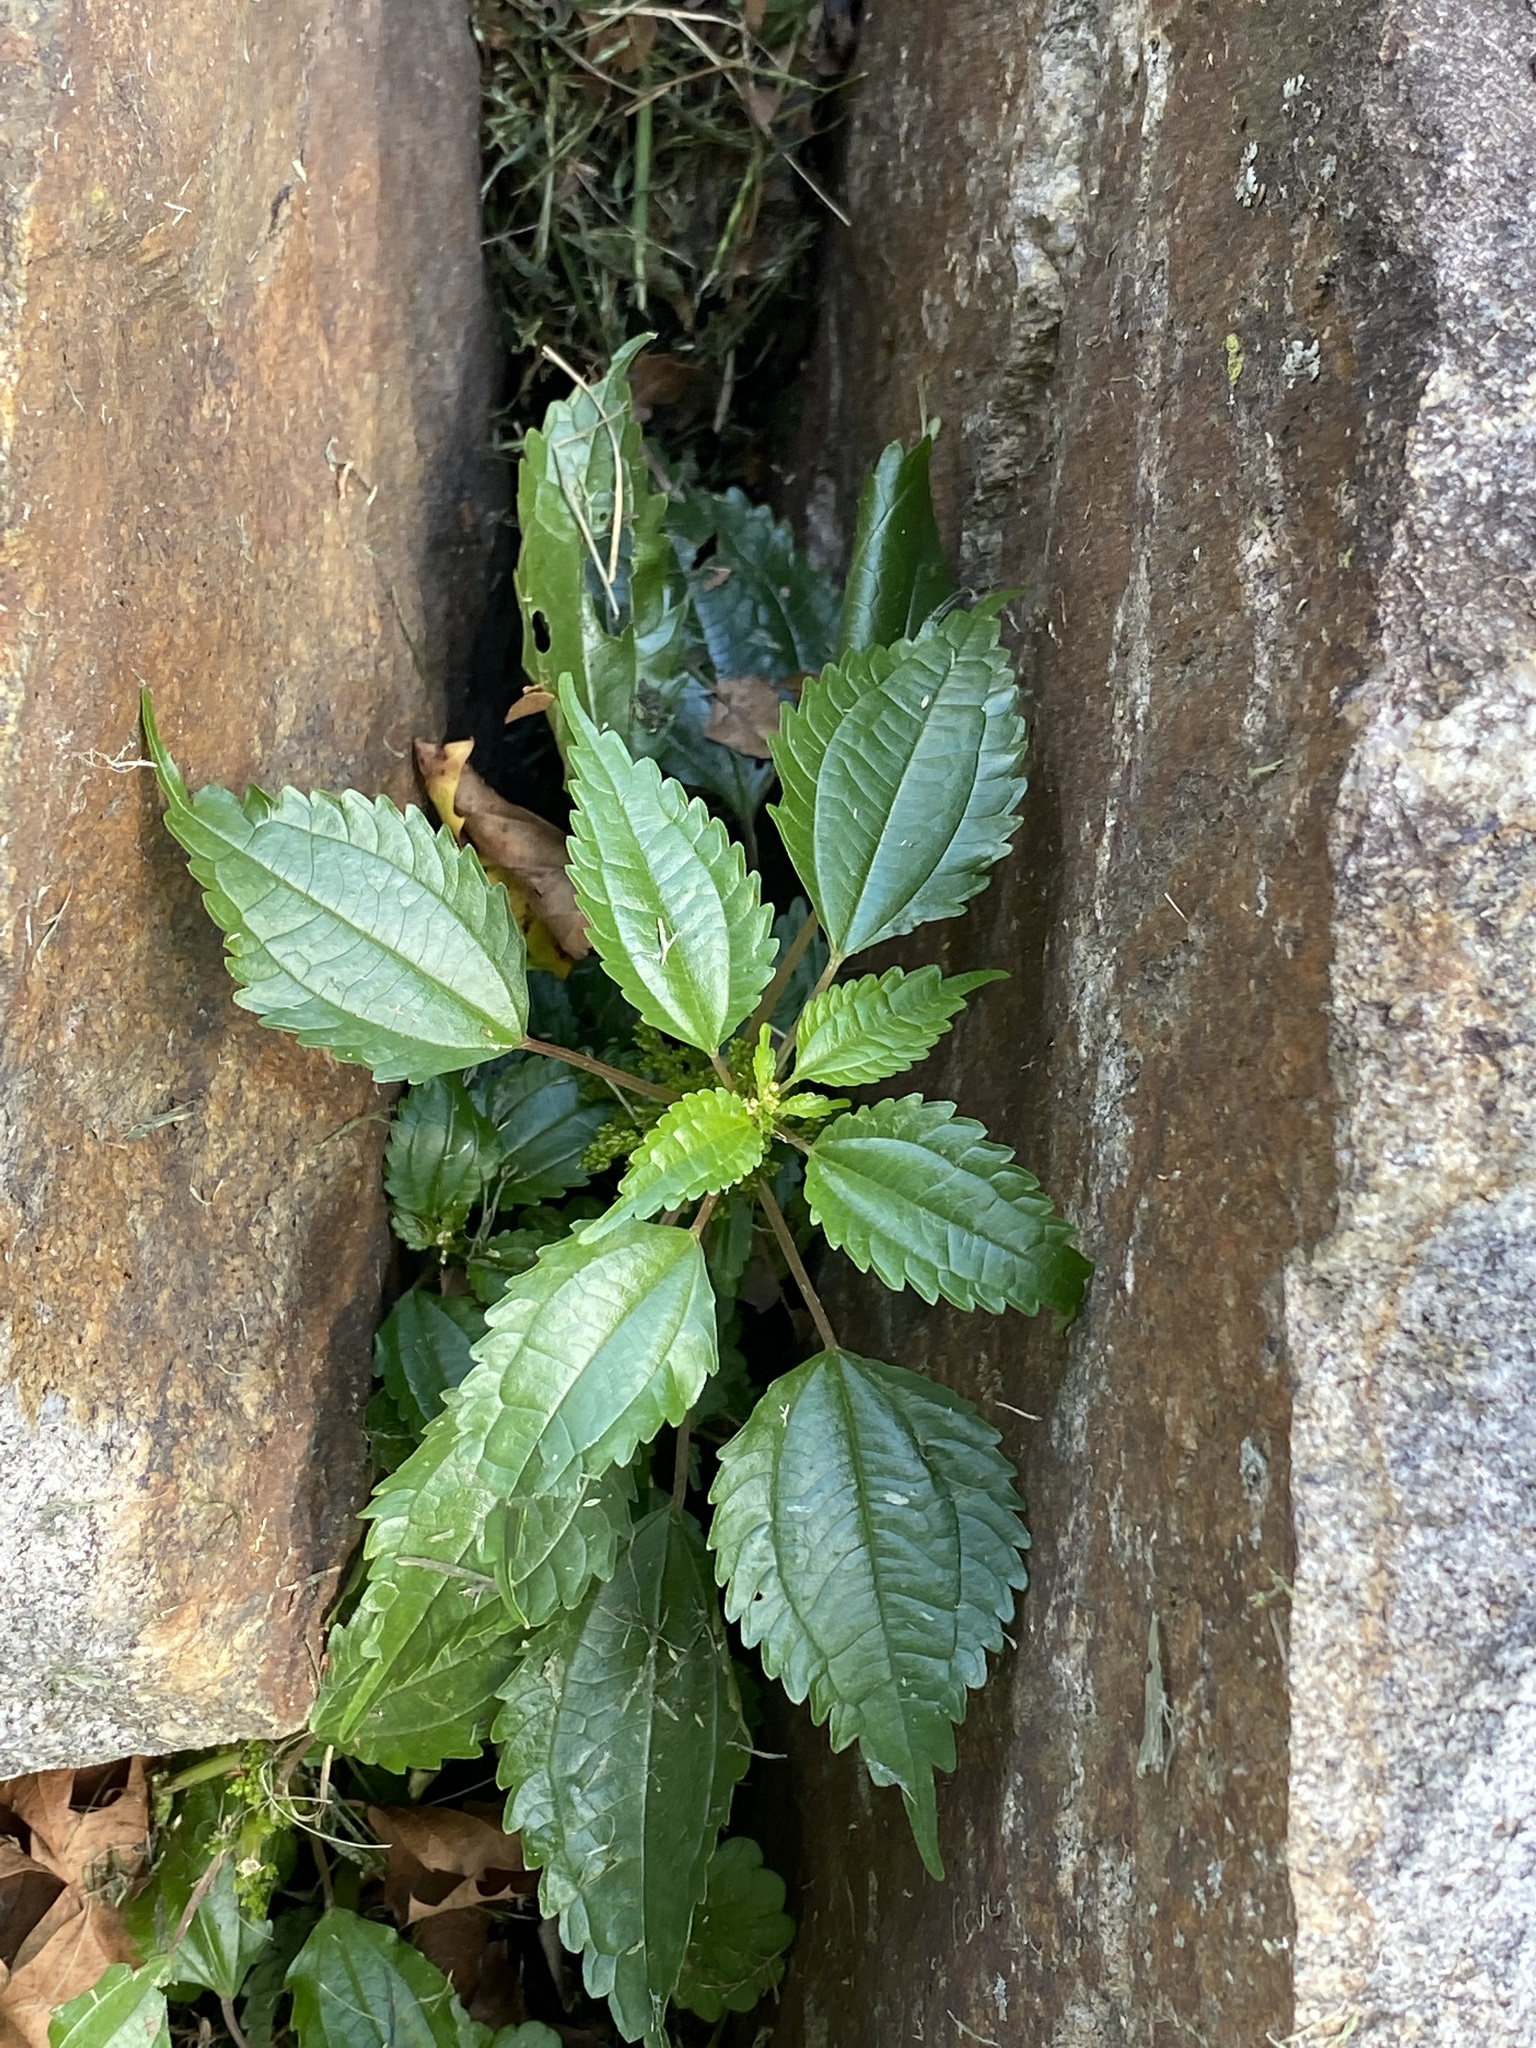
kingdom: Plantae
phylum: Tracheophyta
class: Magnoliopsida
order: Rosales
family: Urticaceae
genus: Pilea
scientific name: Pilea pumila
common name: Clearweed
